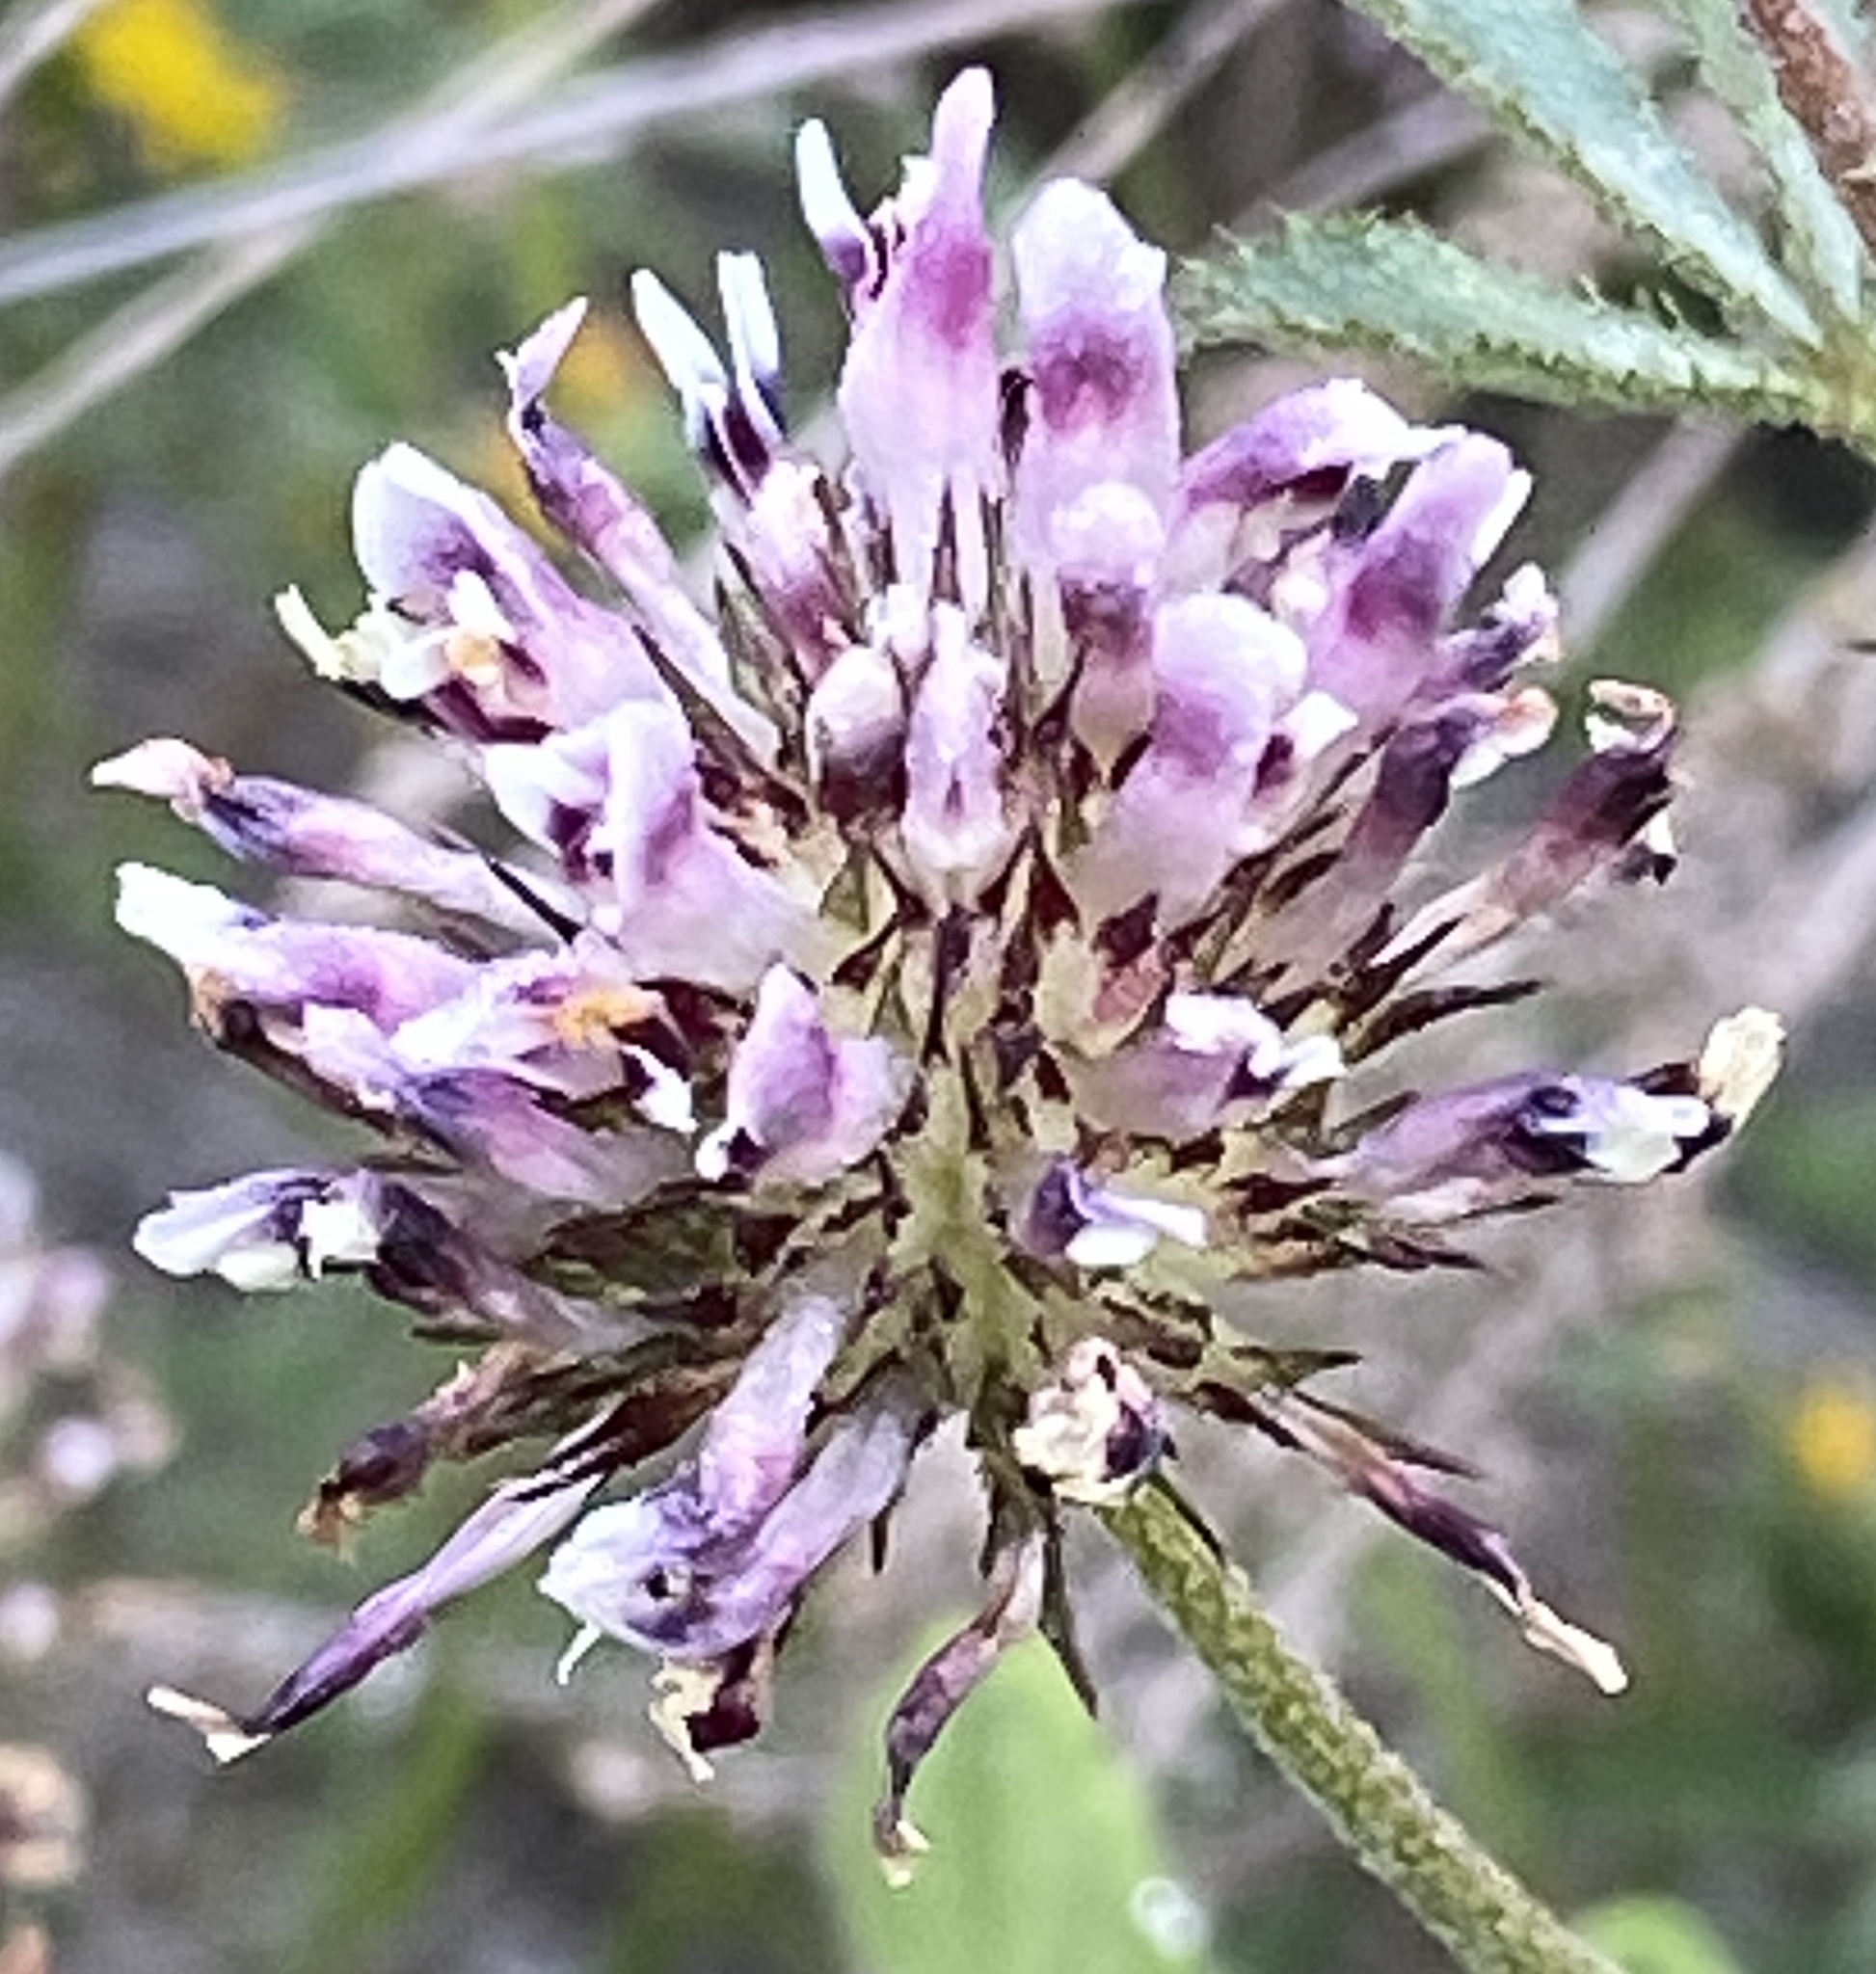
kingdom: Plantae
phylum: Tracheophyta
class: Magnoliopsida
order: Fabales
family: Fabaceae
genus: Trifolium
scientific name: Trifolium obtusiflorum
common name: Clammy clover
